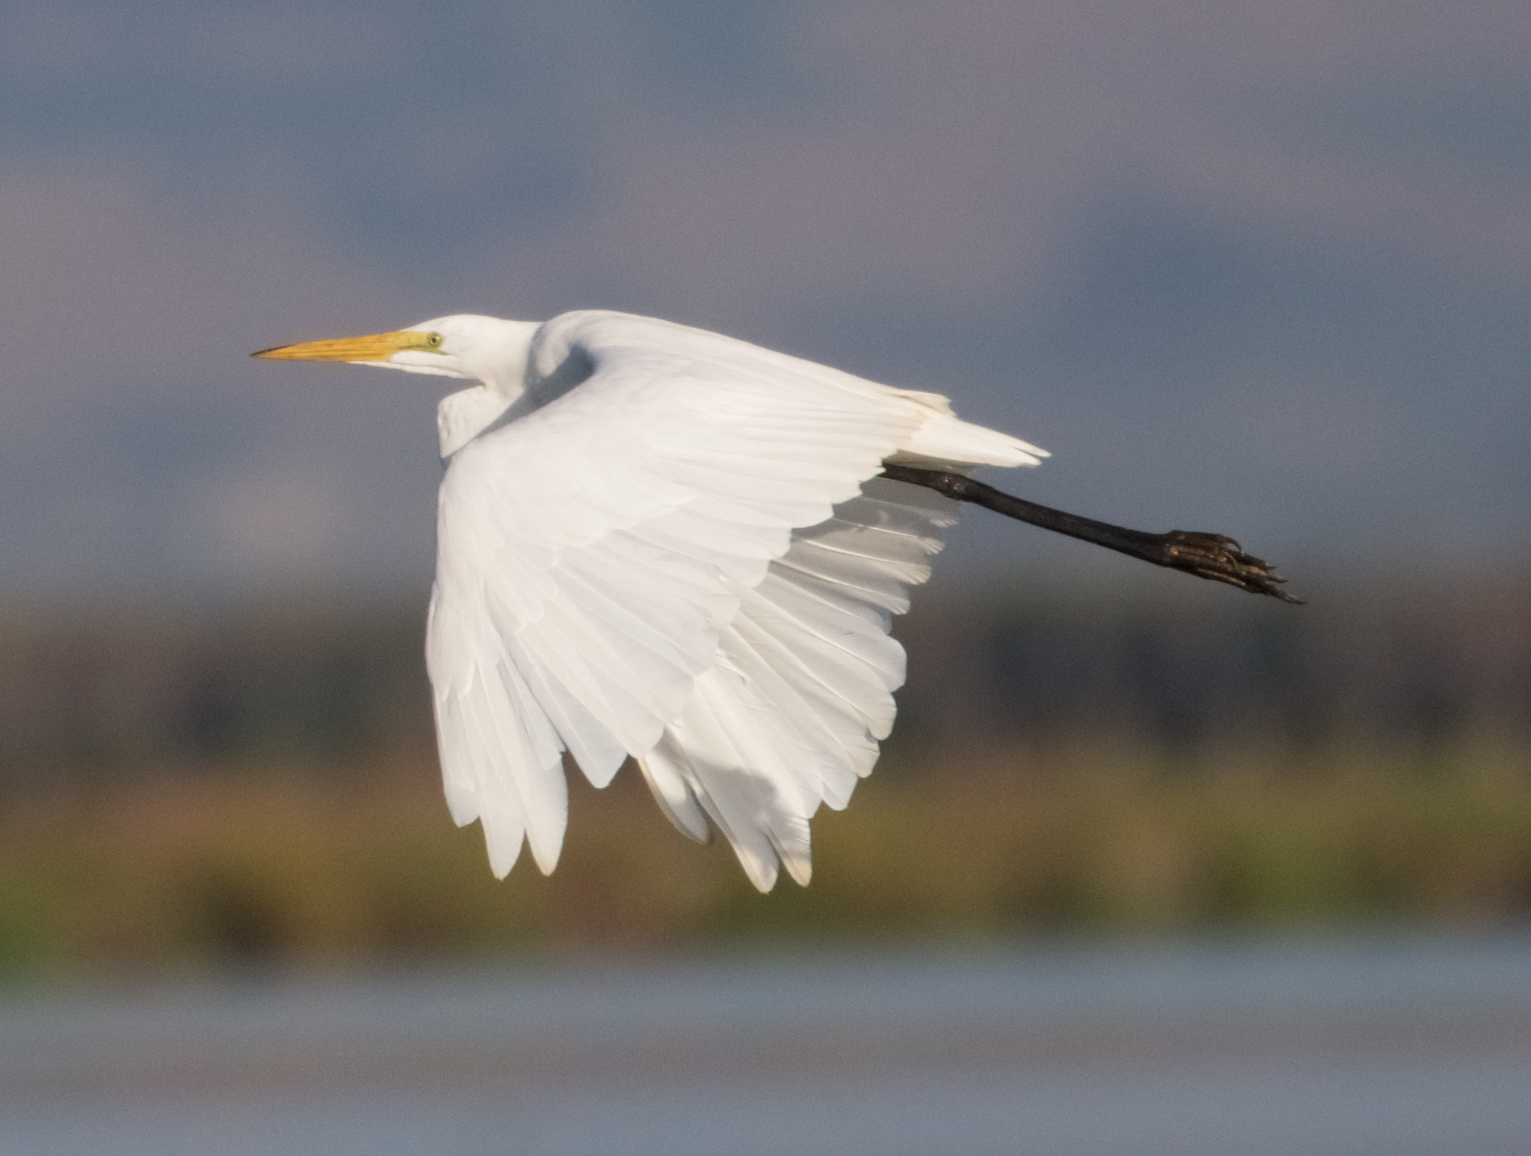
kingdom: Animalia
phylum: Chordata
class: Aves
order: Pelecaniformes
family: Ardeidae
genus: Ardea
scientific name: Ardea alba
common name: Great egret
